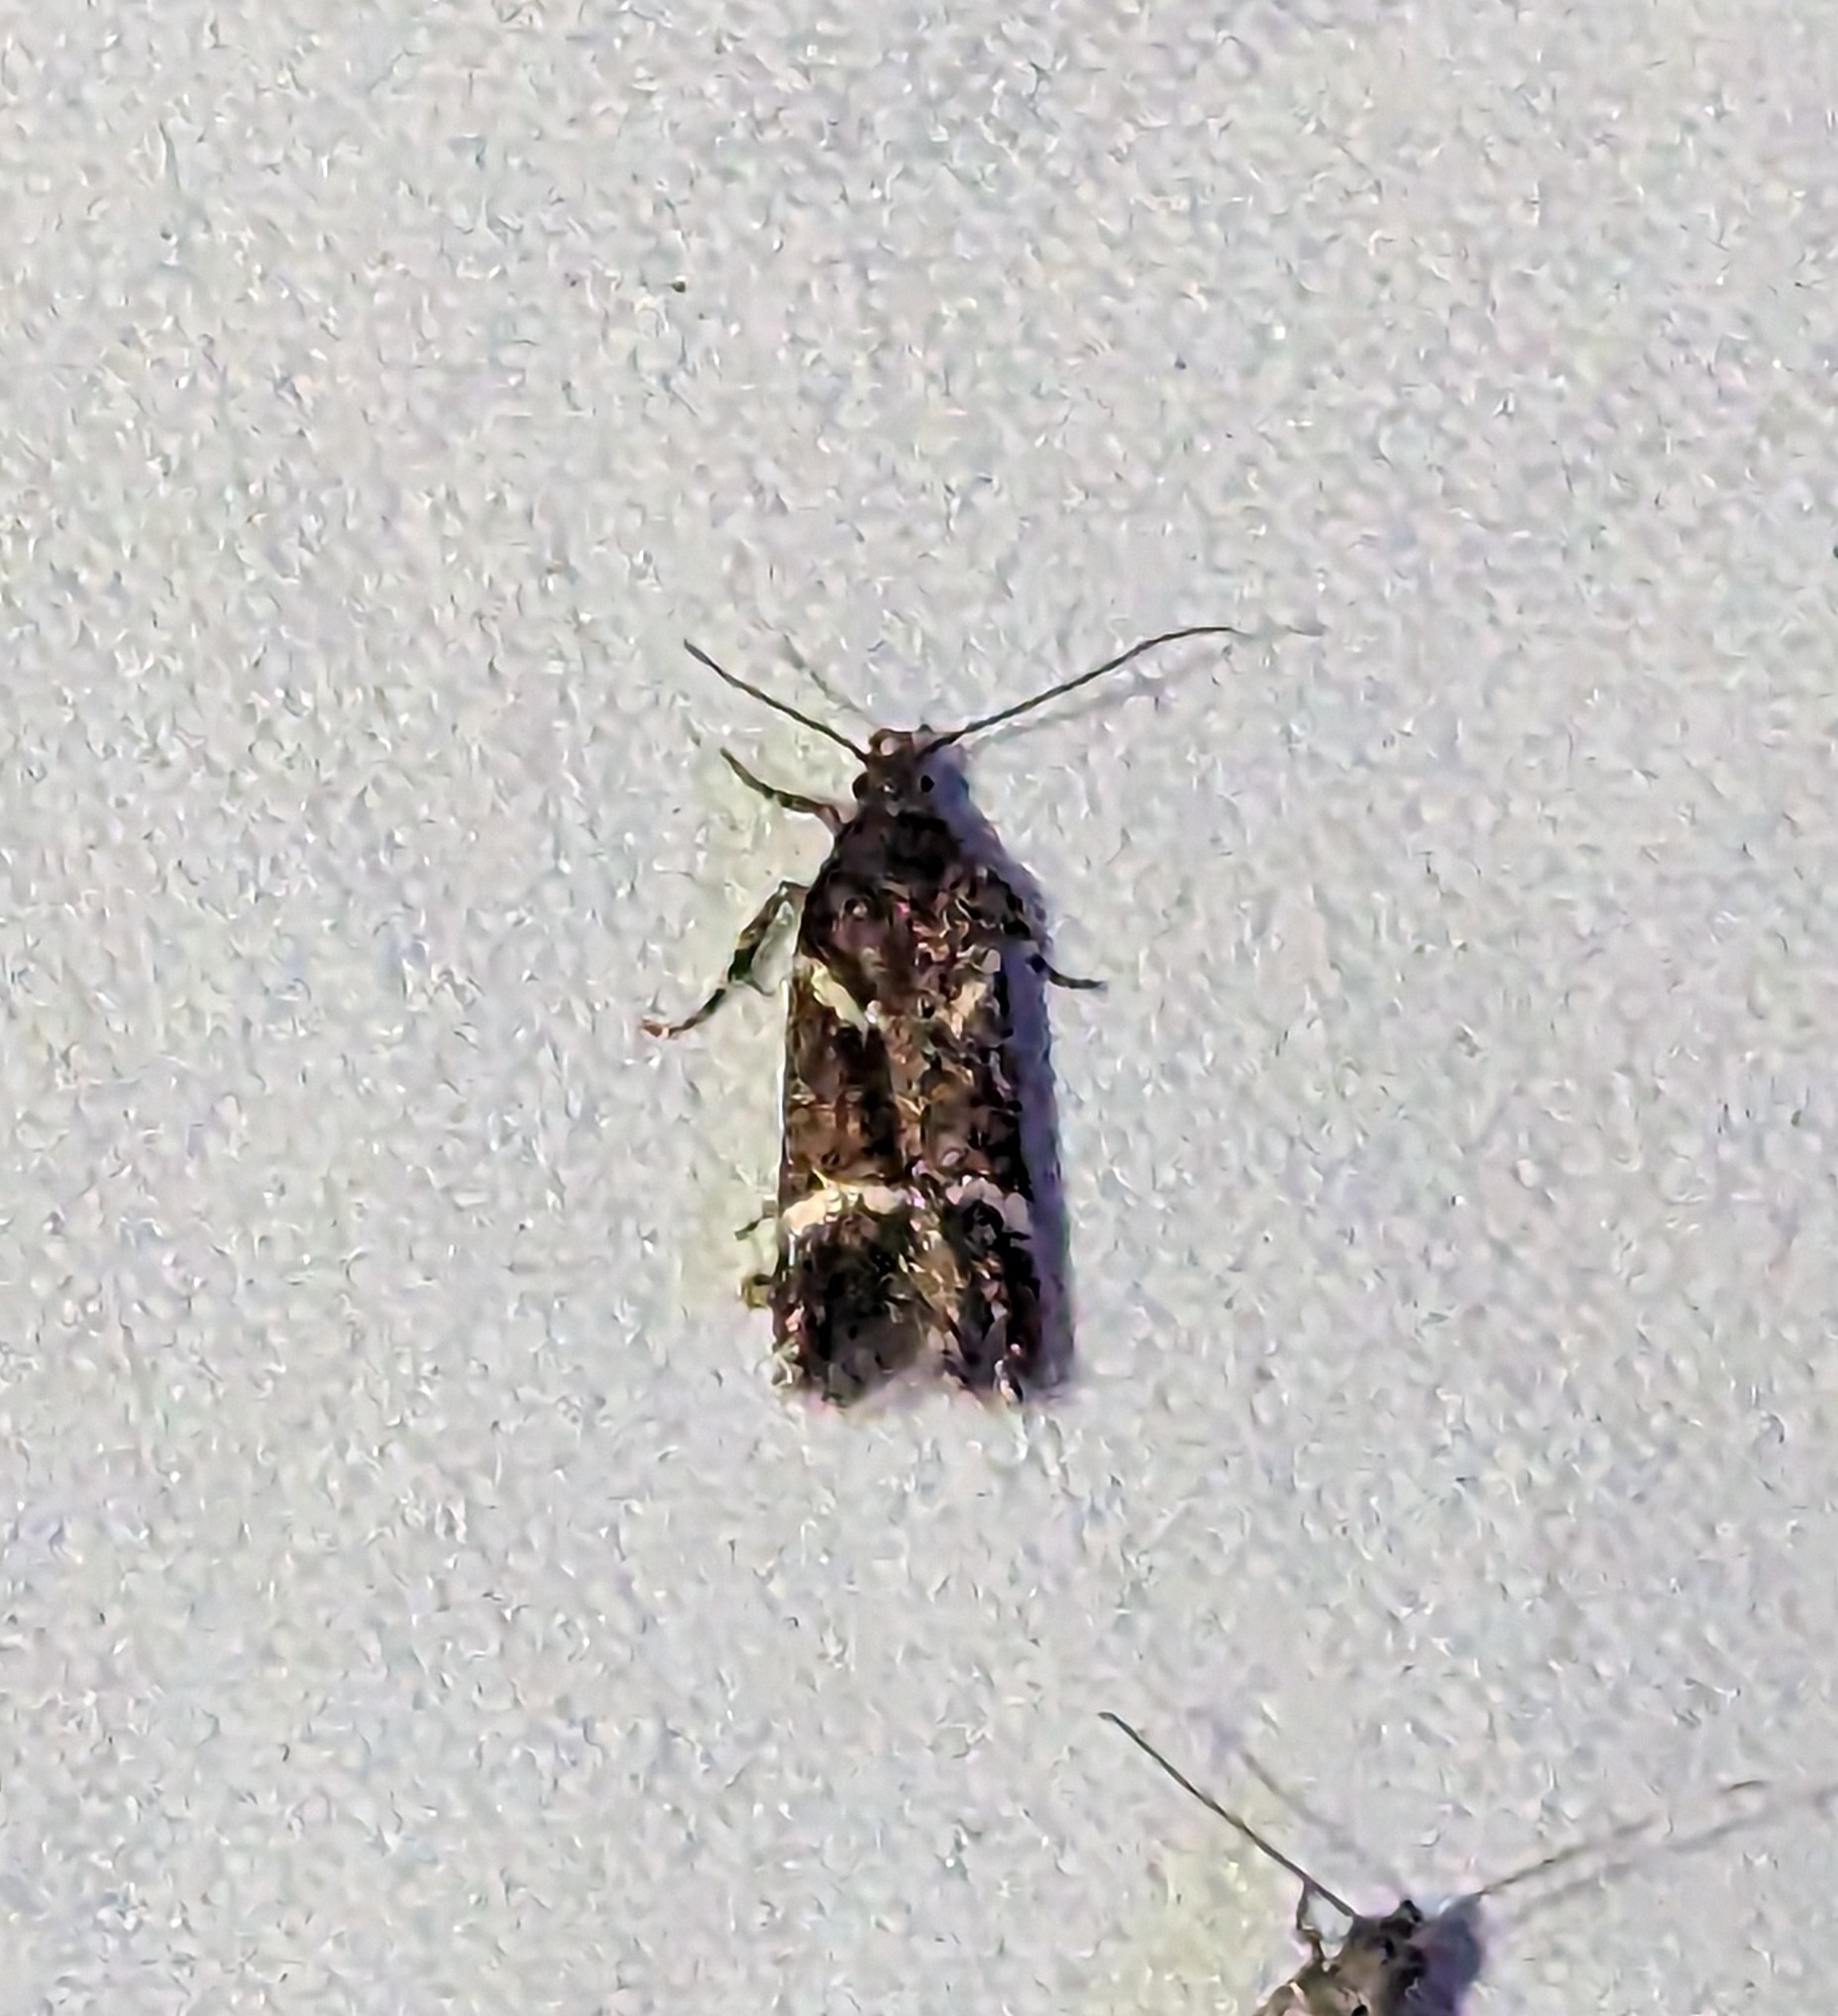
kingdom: Animalia
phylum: Arthropoda
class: Insecta
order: Lepidoptera
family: Gelechiidae
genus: Chionodes
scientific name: Chionodes lugubrella
